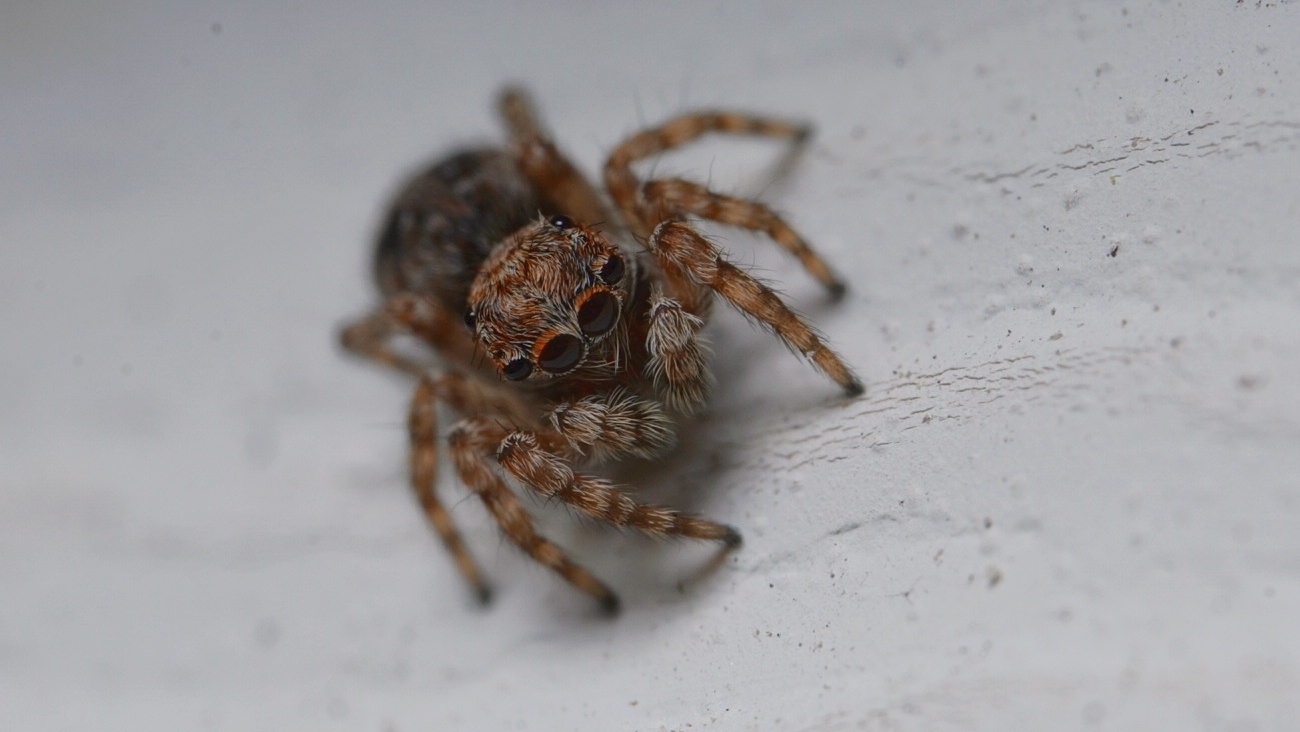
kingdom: Animalia
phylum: Arthropoda
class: Arachnida
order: Araneae
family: Salticidae
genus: Attulus
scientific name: Attulus fasciger
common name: Asiatic wall jumping spider
